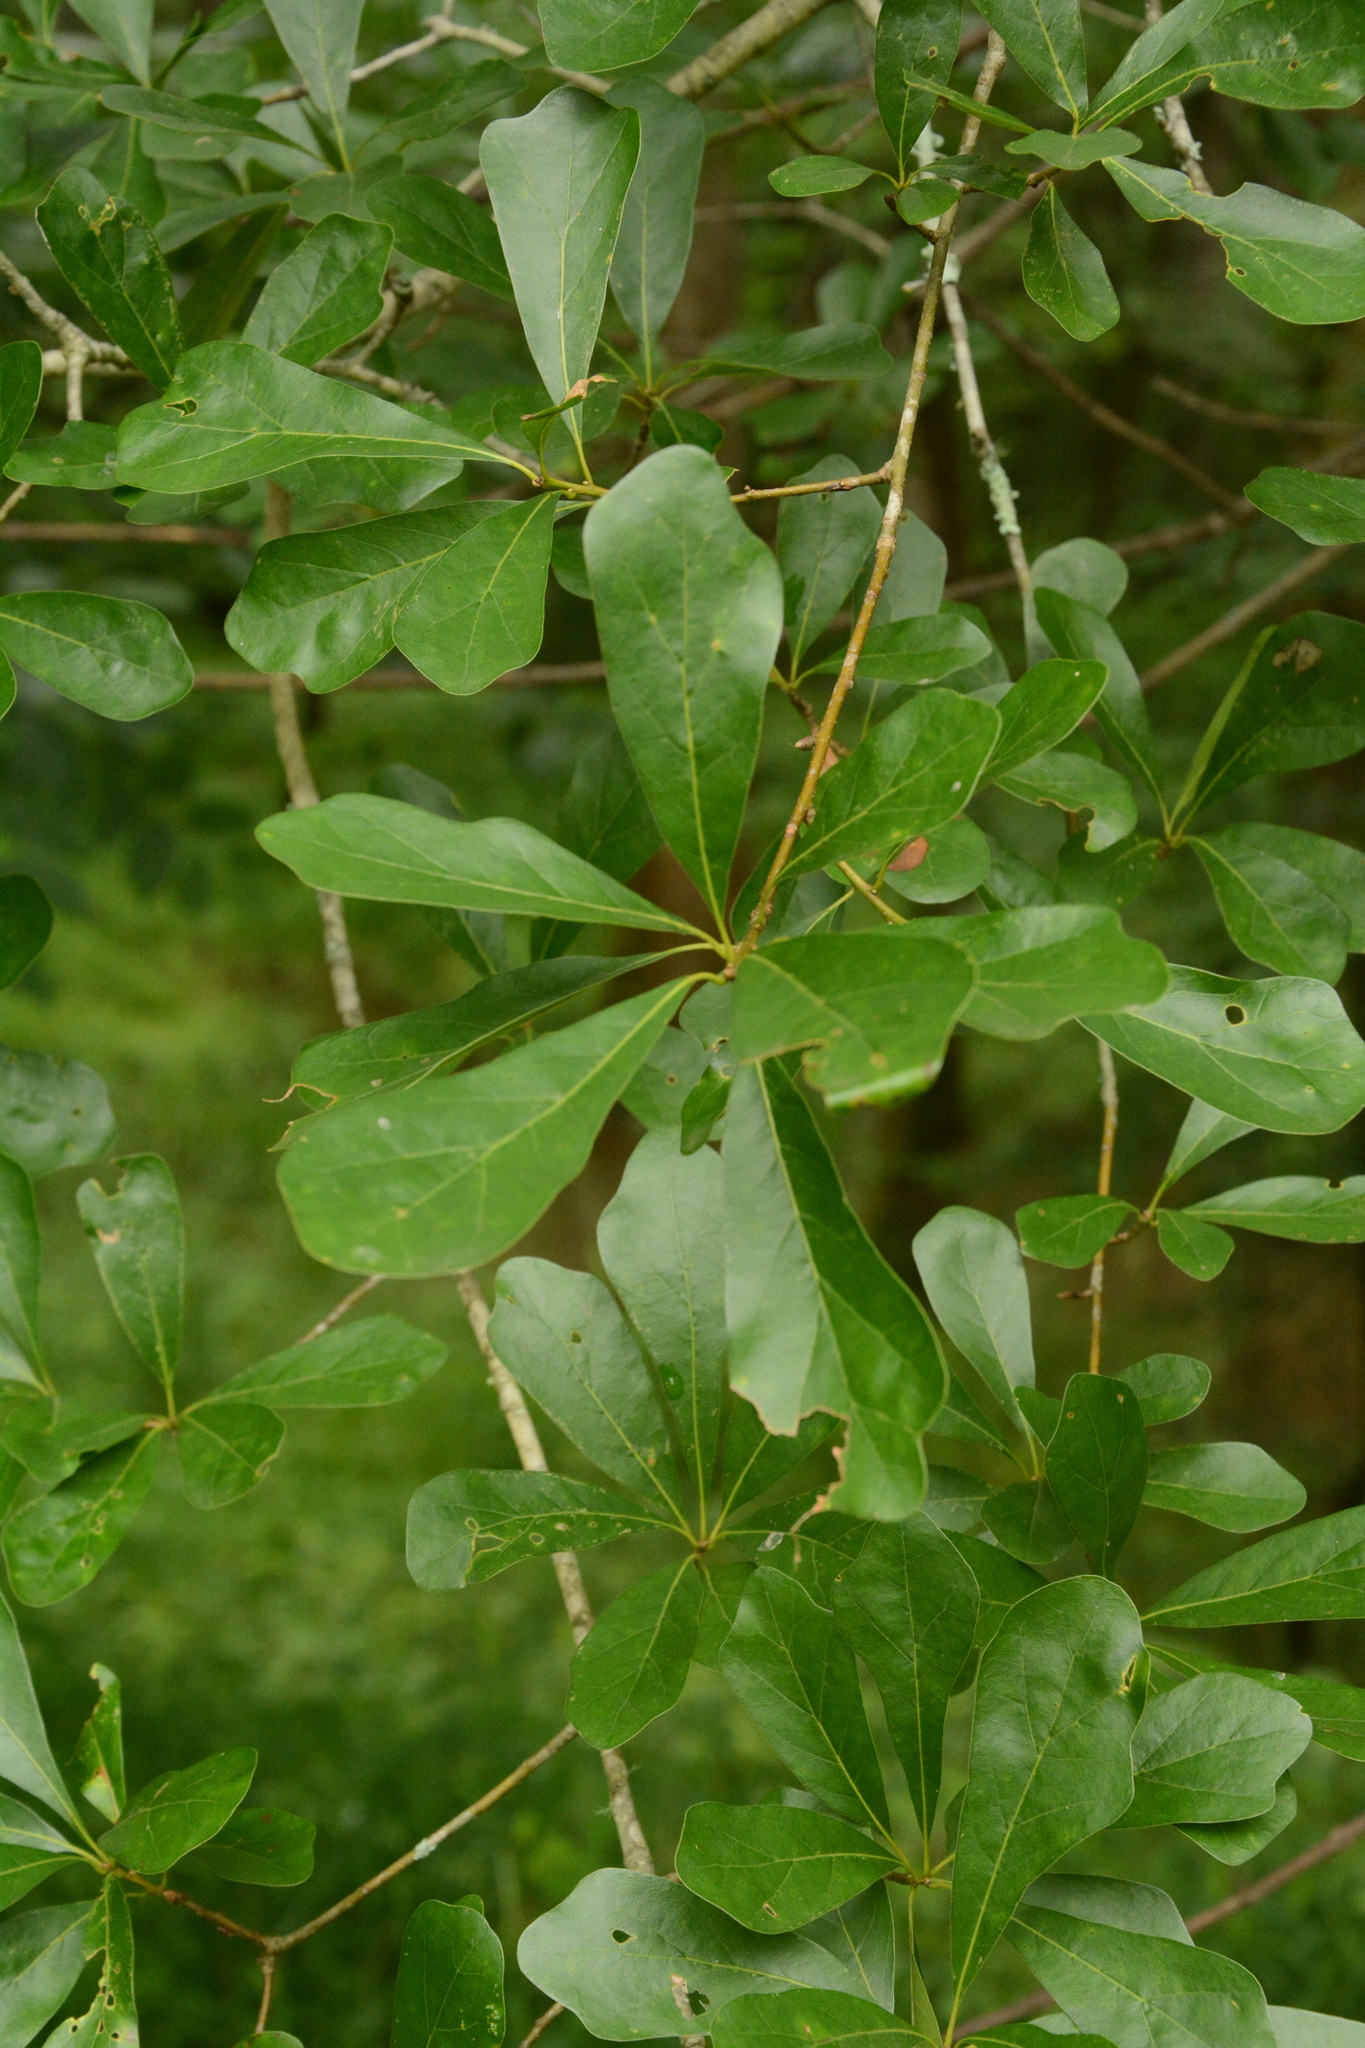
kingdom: Plantae
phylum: Tracheophyta
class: Magnoliopsida
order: Fagales
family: Fagaceae
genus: Quercus
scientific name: Quercus nigra
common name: Water oak
